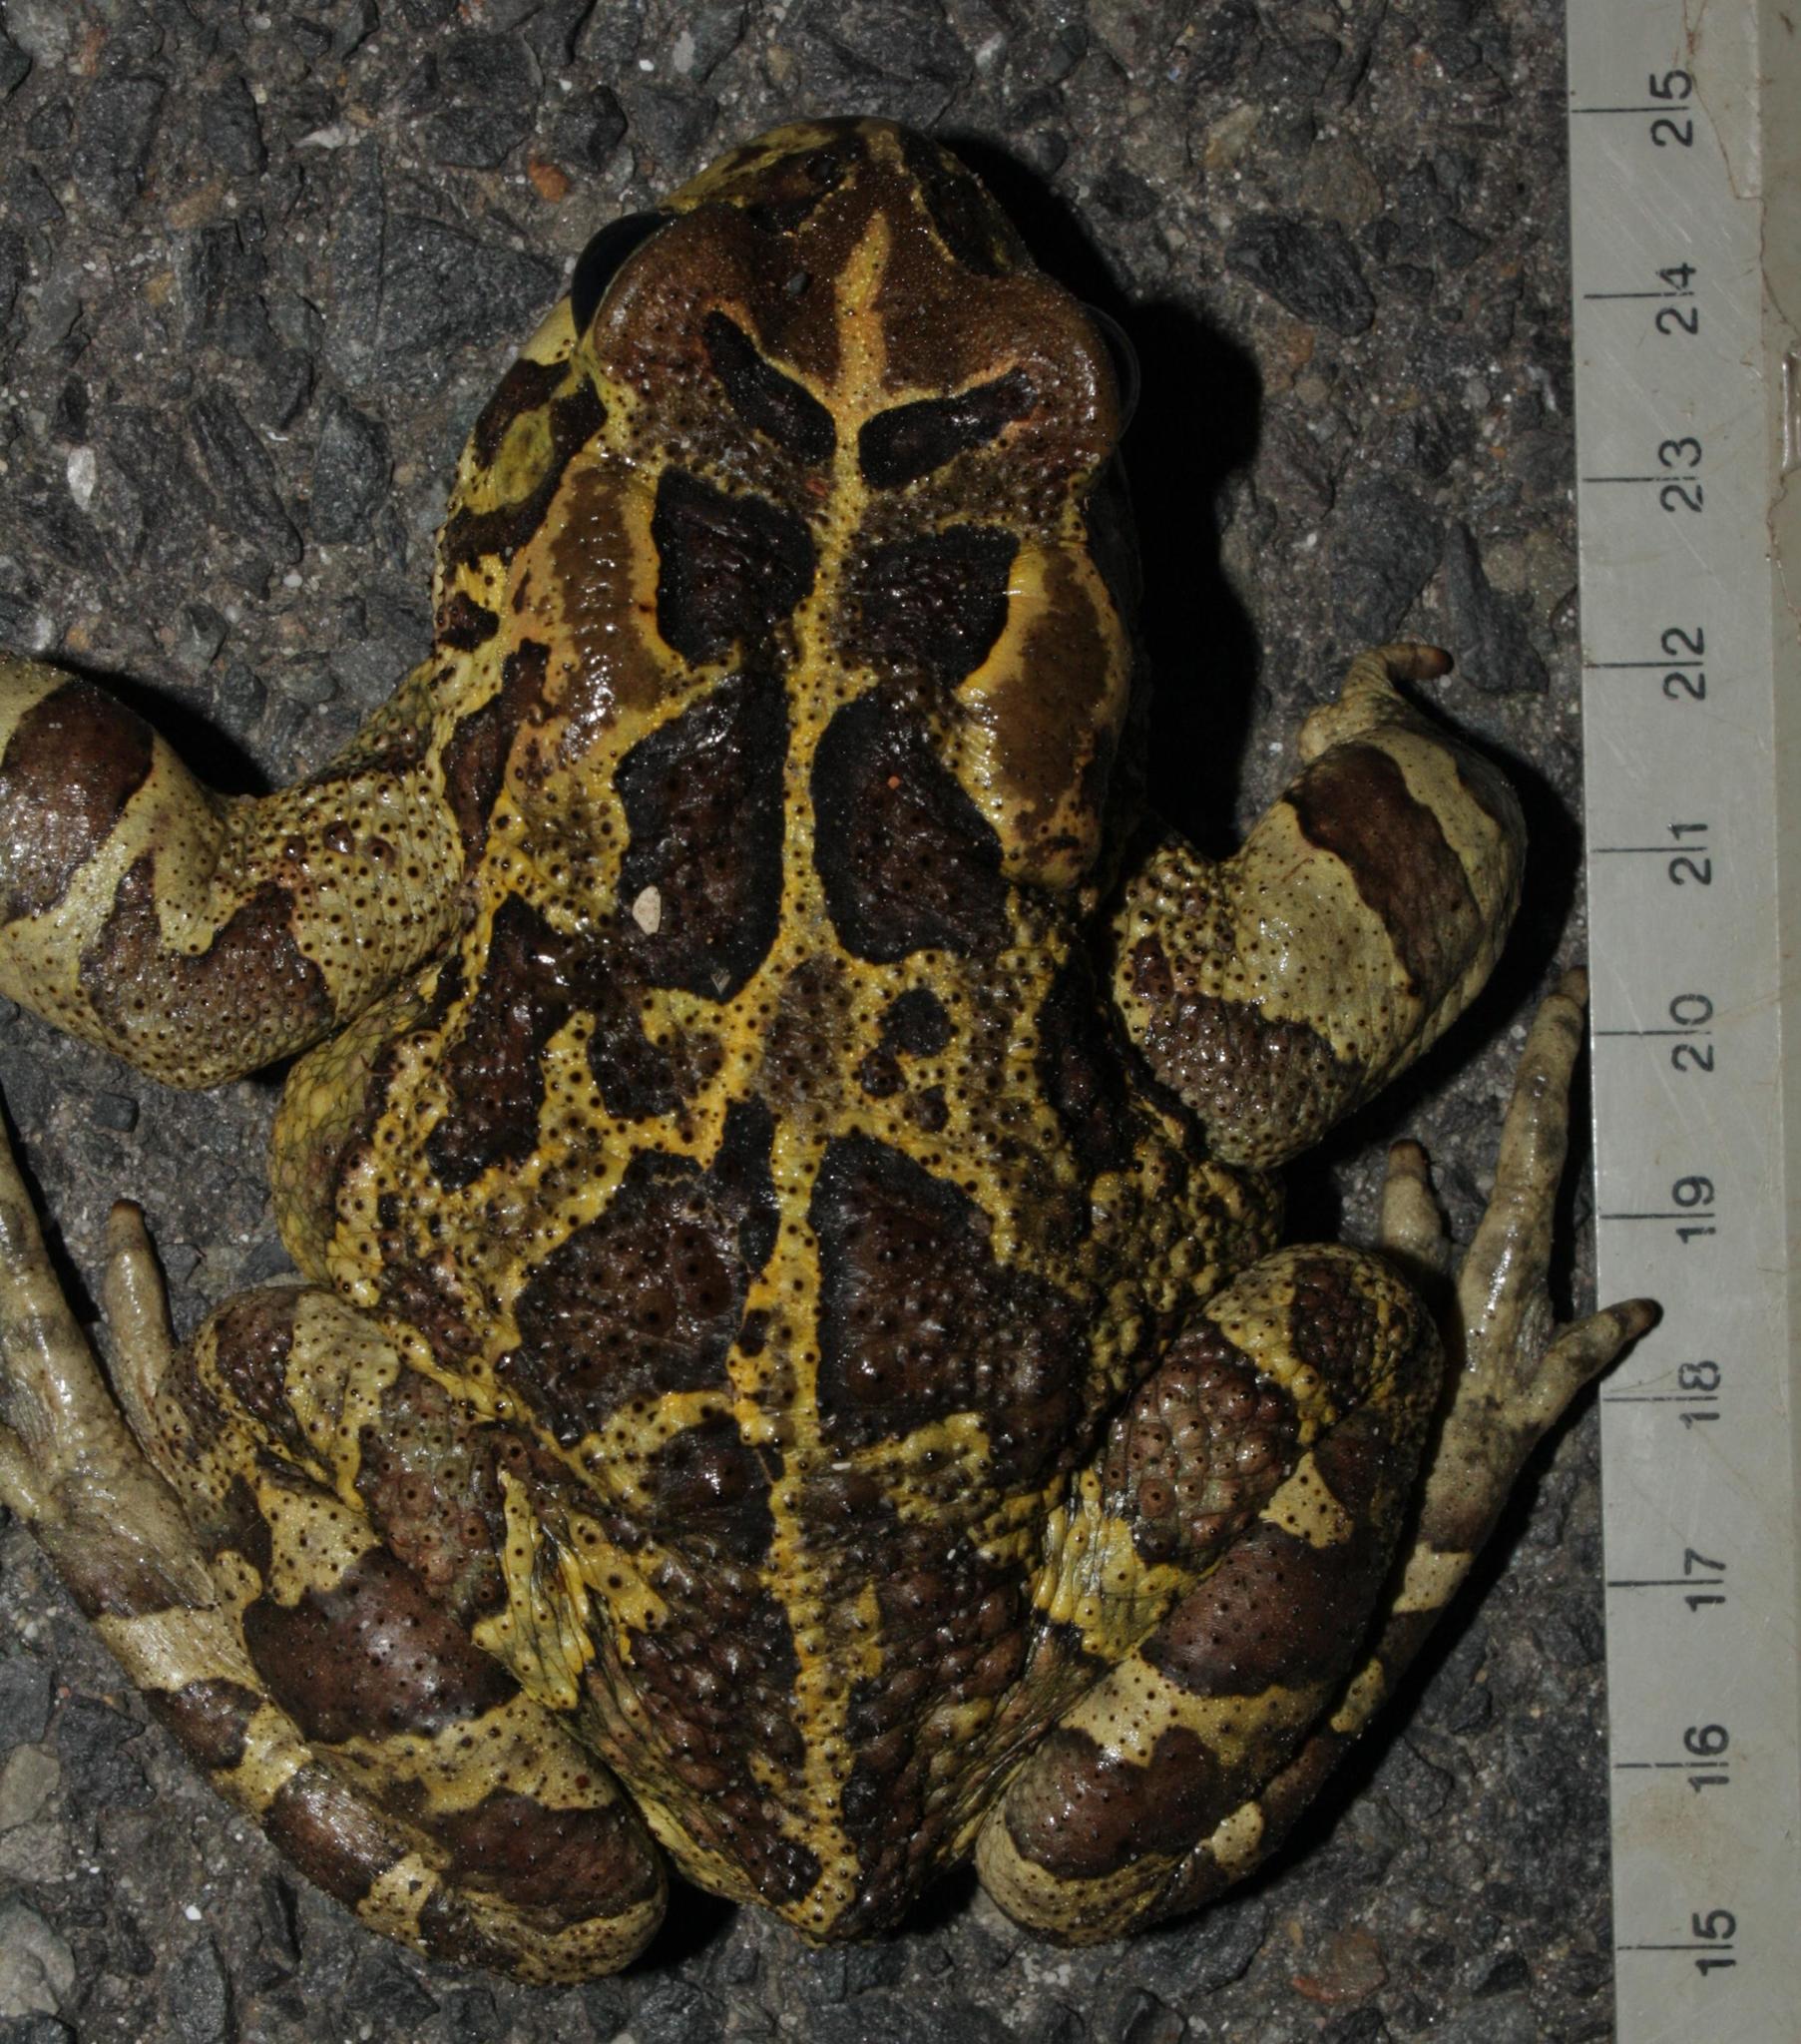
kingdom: Animalia
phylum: Chordata
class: Amphibia
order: Anura
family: Bufonidae
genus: Sclerophrys
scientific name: Sclerophrys pantherina
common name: Panther toad
